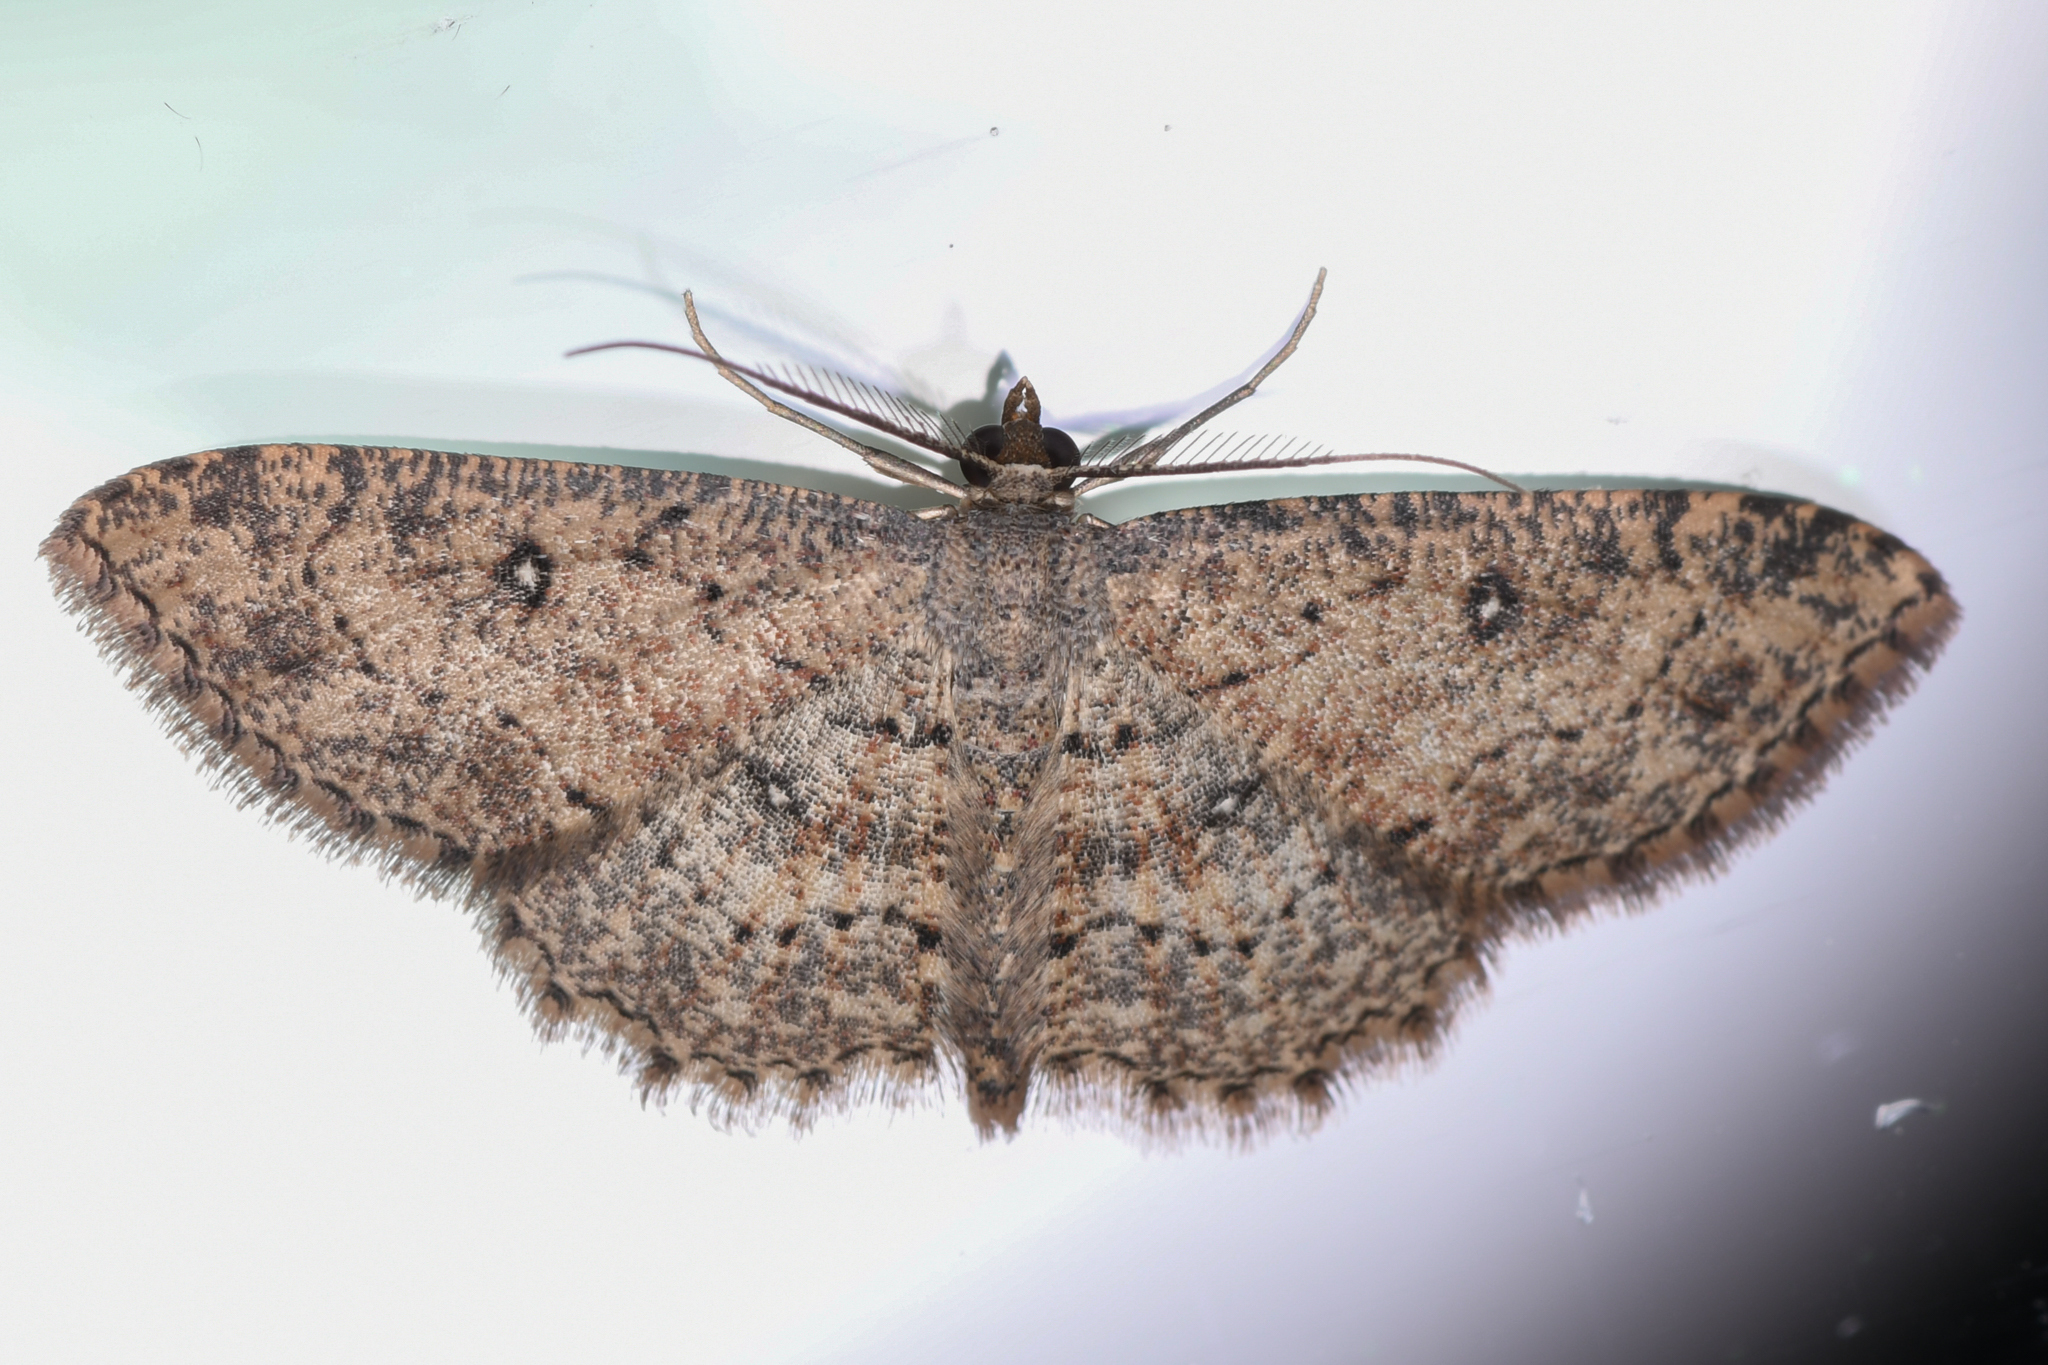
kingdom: Animalia
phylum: Arthropoda
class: Insecta
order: Lepidoptera
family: Geometridae
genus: Cyclophora
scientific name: Cyclophora nanaria
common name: Cankerworm
